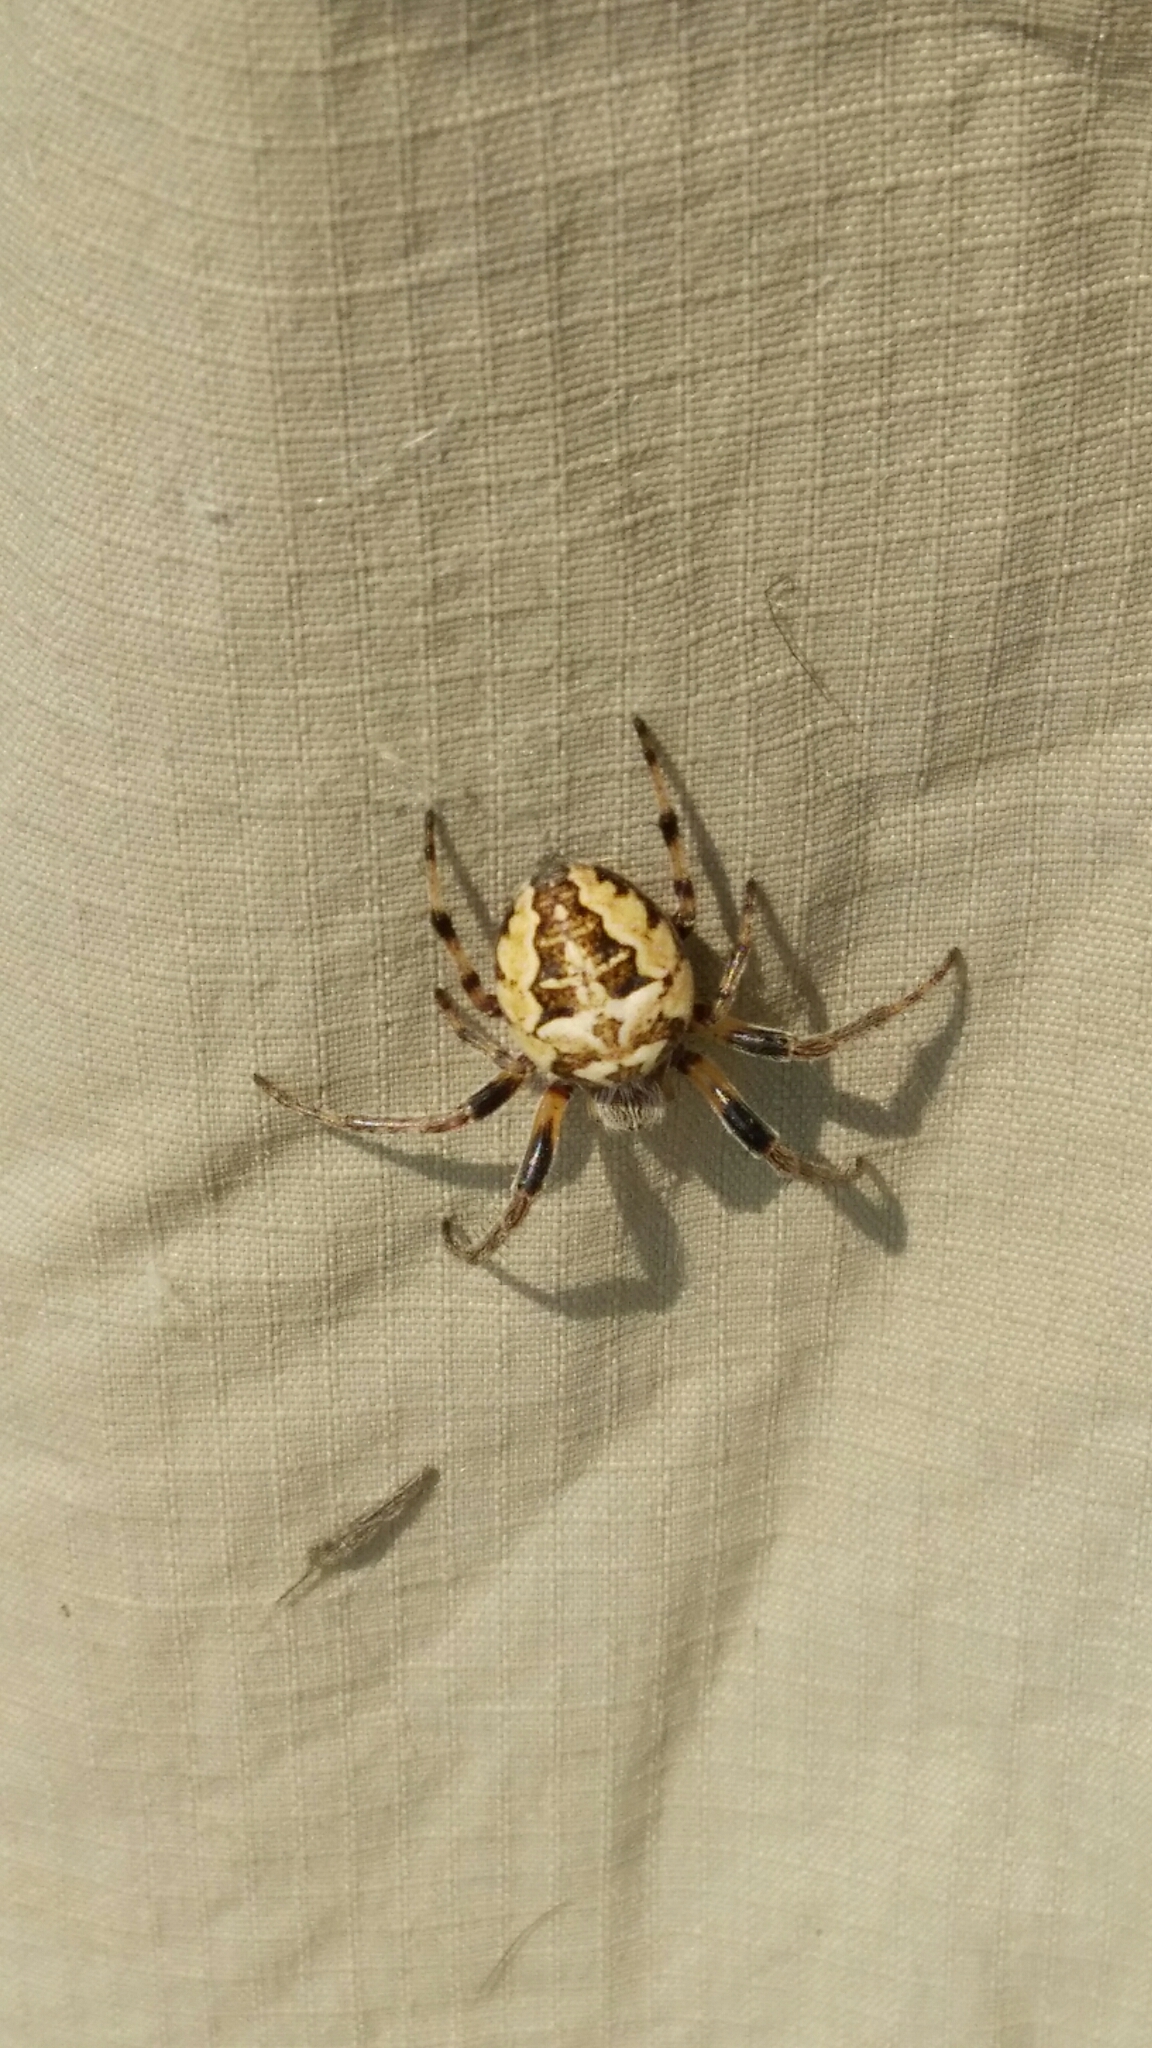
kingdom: Animalia
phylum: Arthropoda
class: Arachnida
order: Araneae
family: Araneidae
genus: Larinioides
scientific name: Larinioides cornutus
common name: Furrow orbweaver
